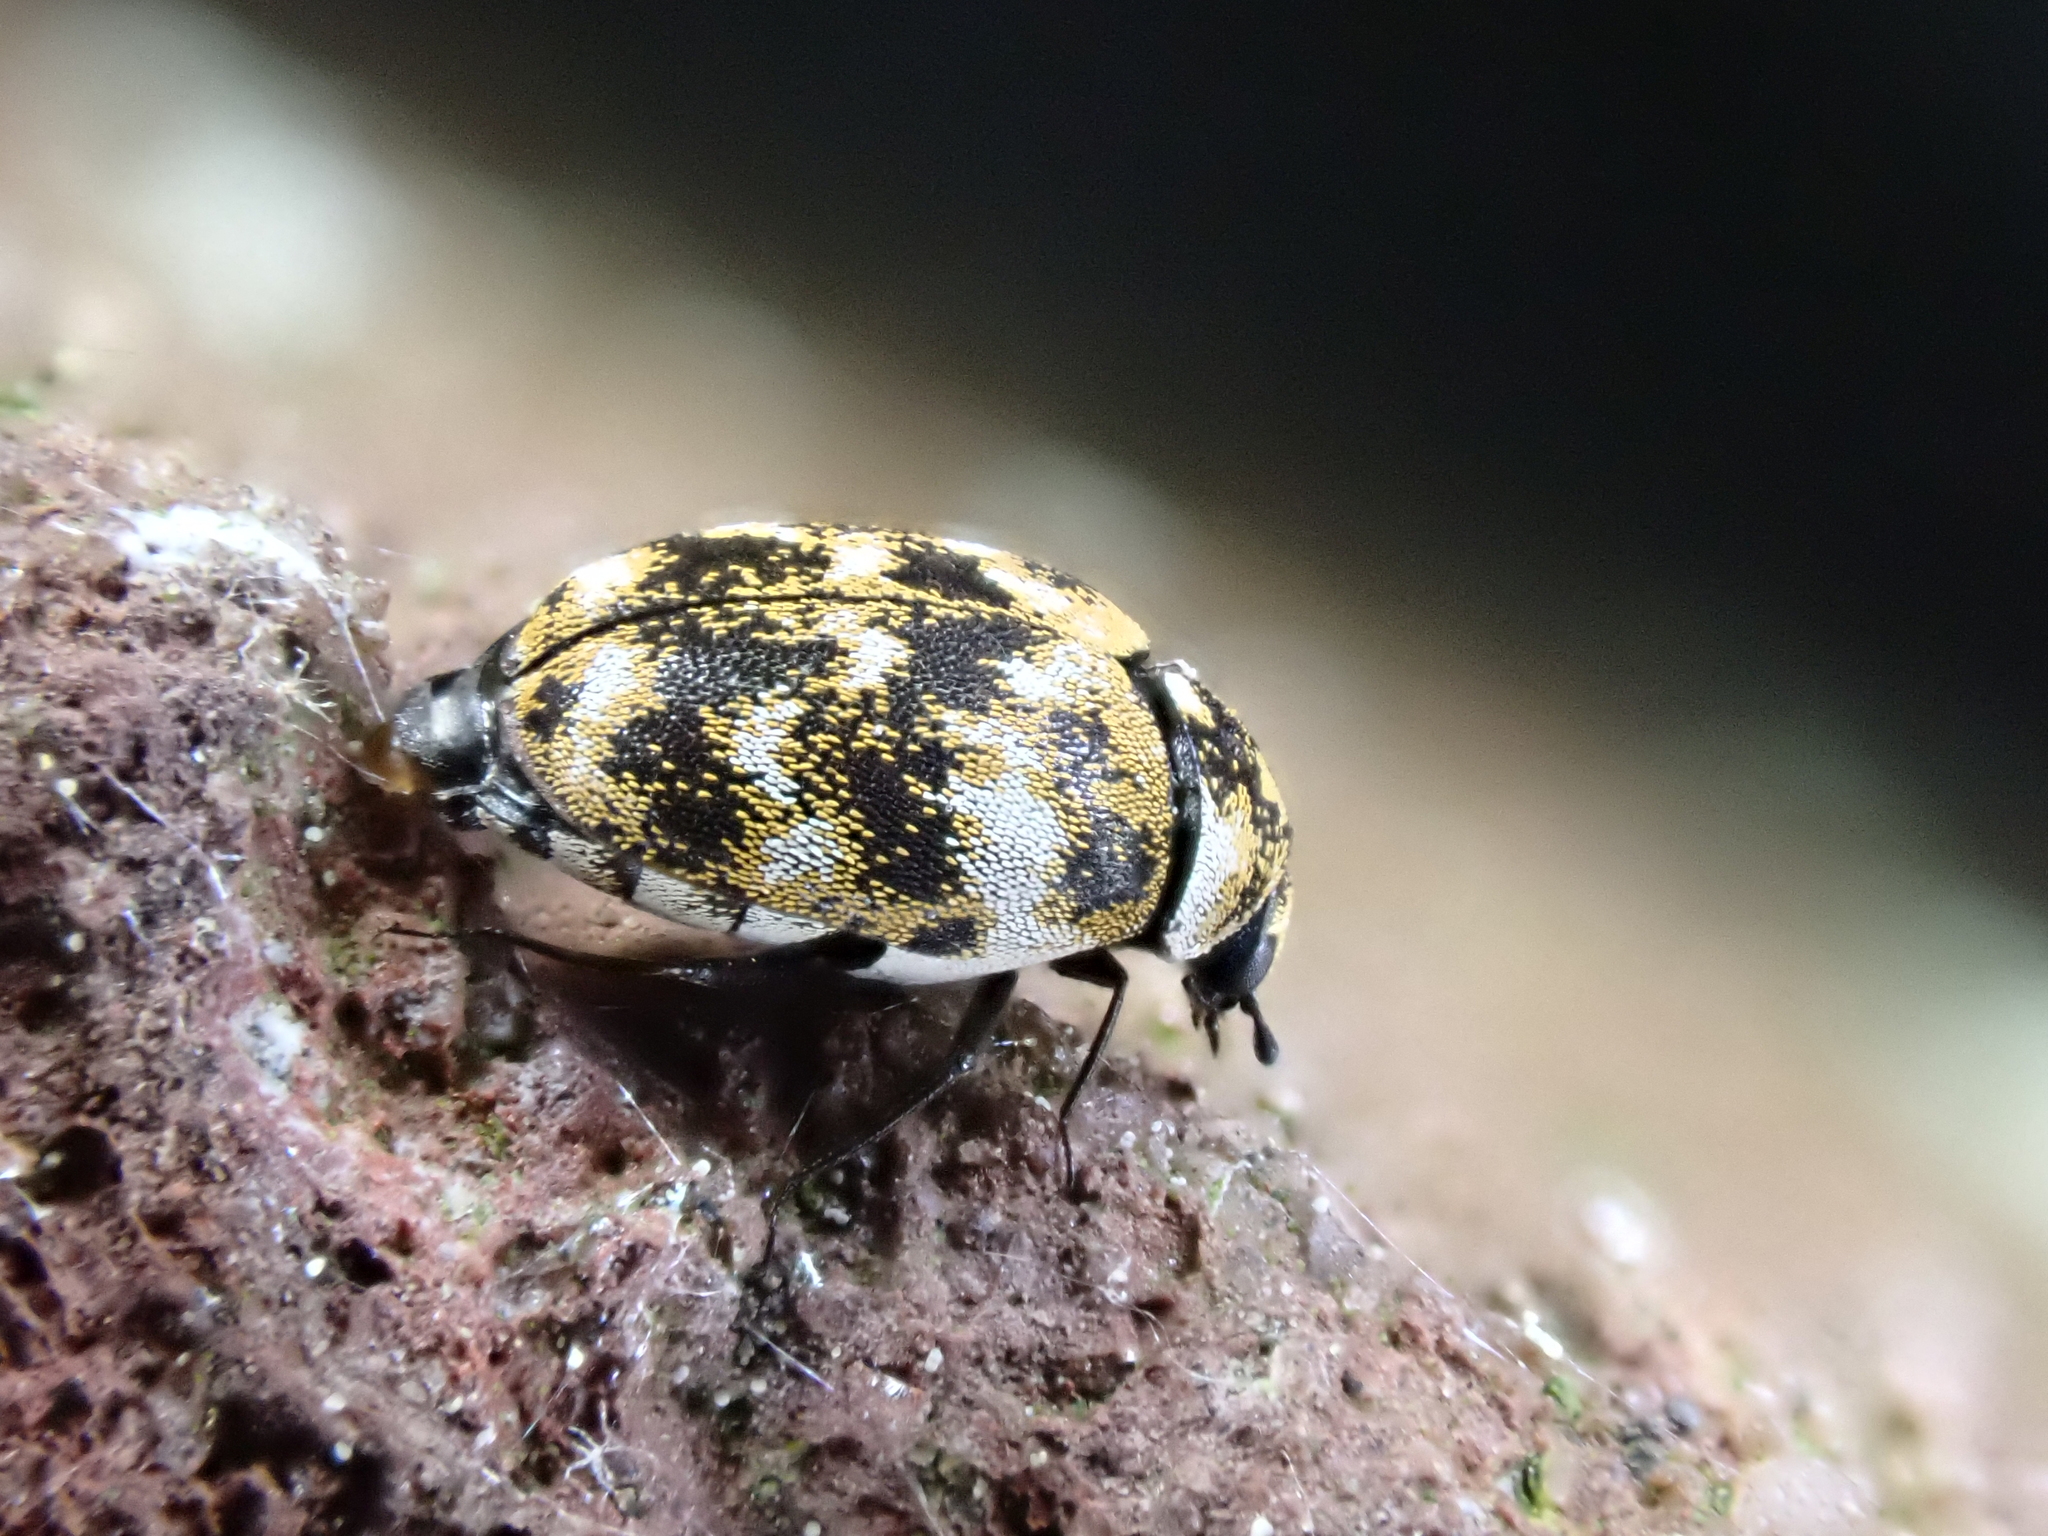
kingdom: Animalia
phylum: Arthropoda
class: Insecta
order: Coleoptera
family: Dermestidae
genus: Anthrenus
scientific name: Anthrenus verbasci
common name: Varied carpet beetle
